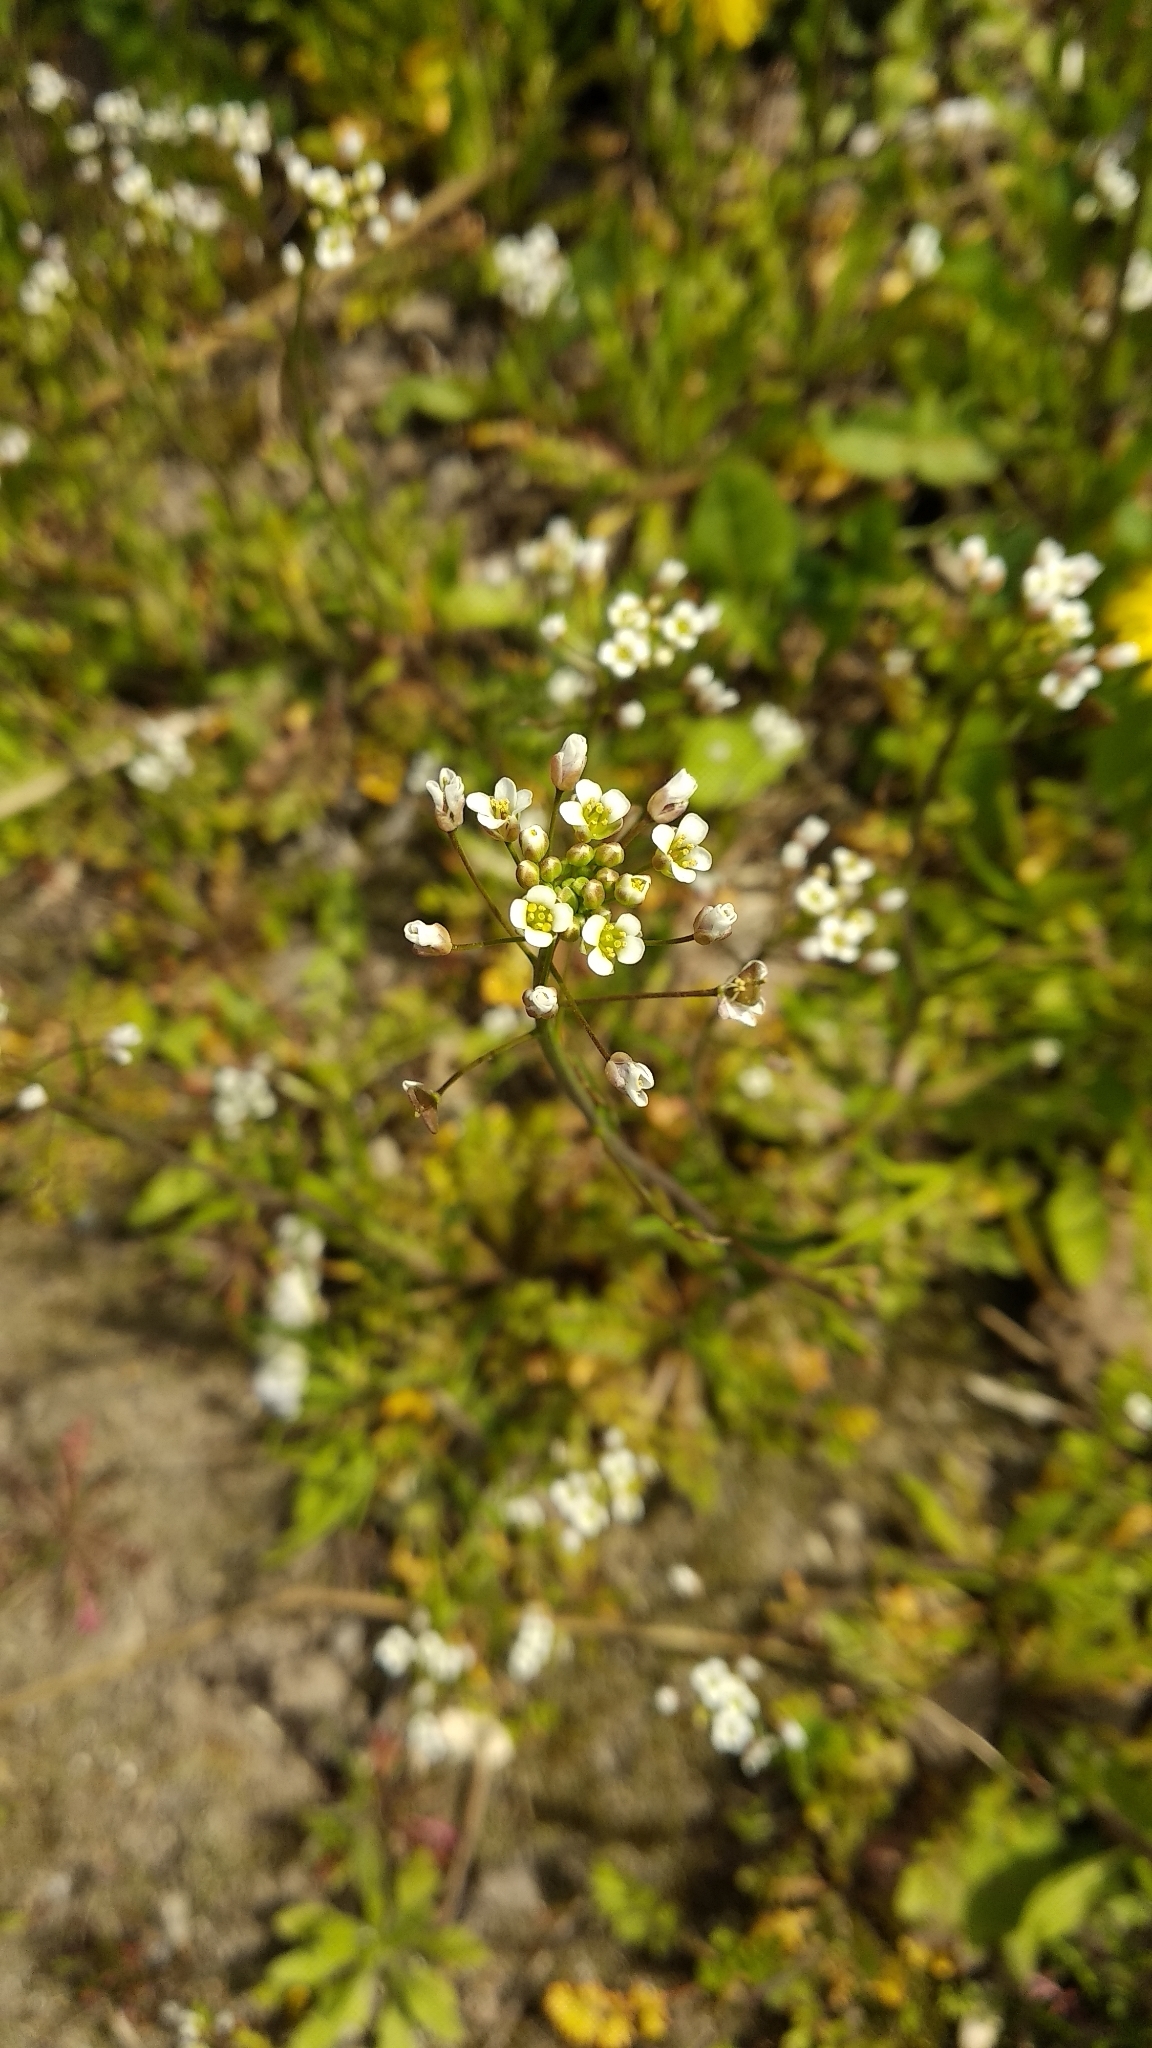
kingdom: Plantae
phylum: Tracheophyta
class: Magnoliopsida
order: Brassicales
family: Brassicaceae
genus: Capsella
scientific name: Capsella bursa-pastoris
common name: Shepherd's purse
